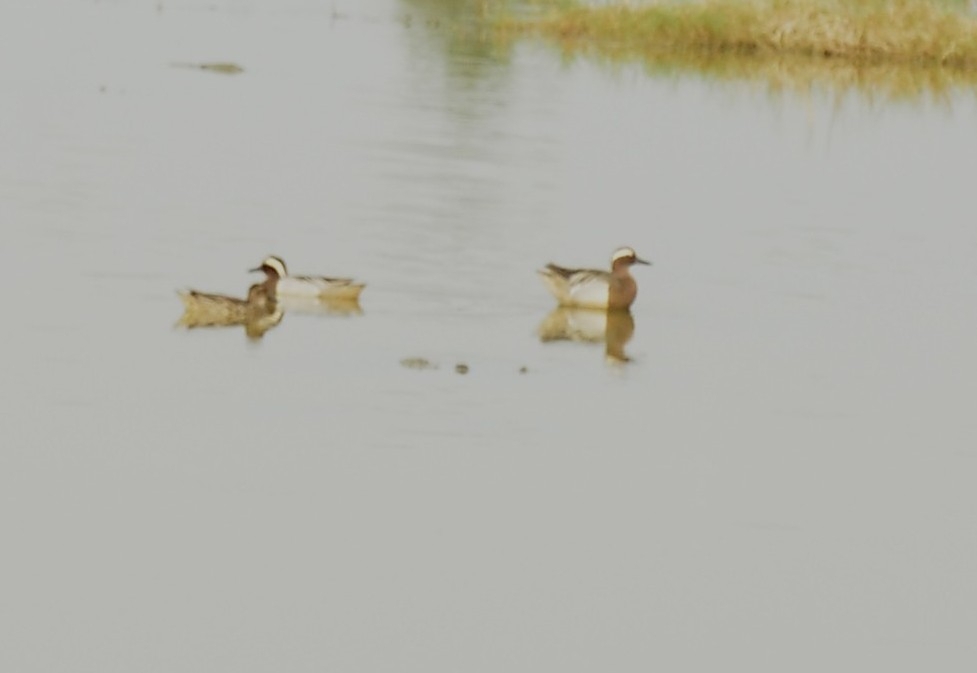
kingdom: Animalia
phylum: Chordata
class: Aves
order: Anseriformes
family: Anatidae
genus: Spatula
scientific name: Spatula querquedula
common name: Garganey
